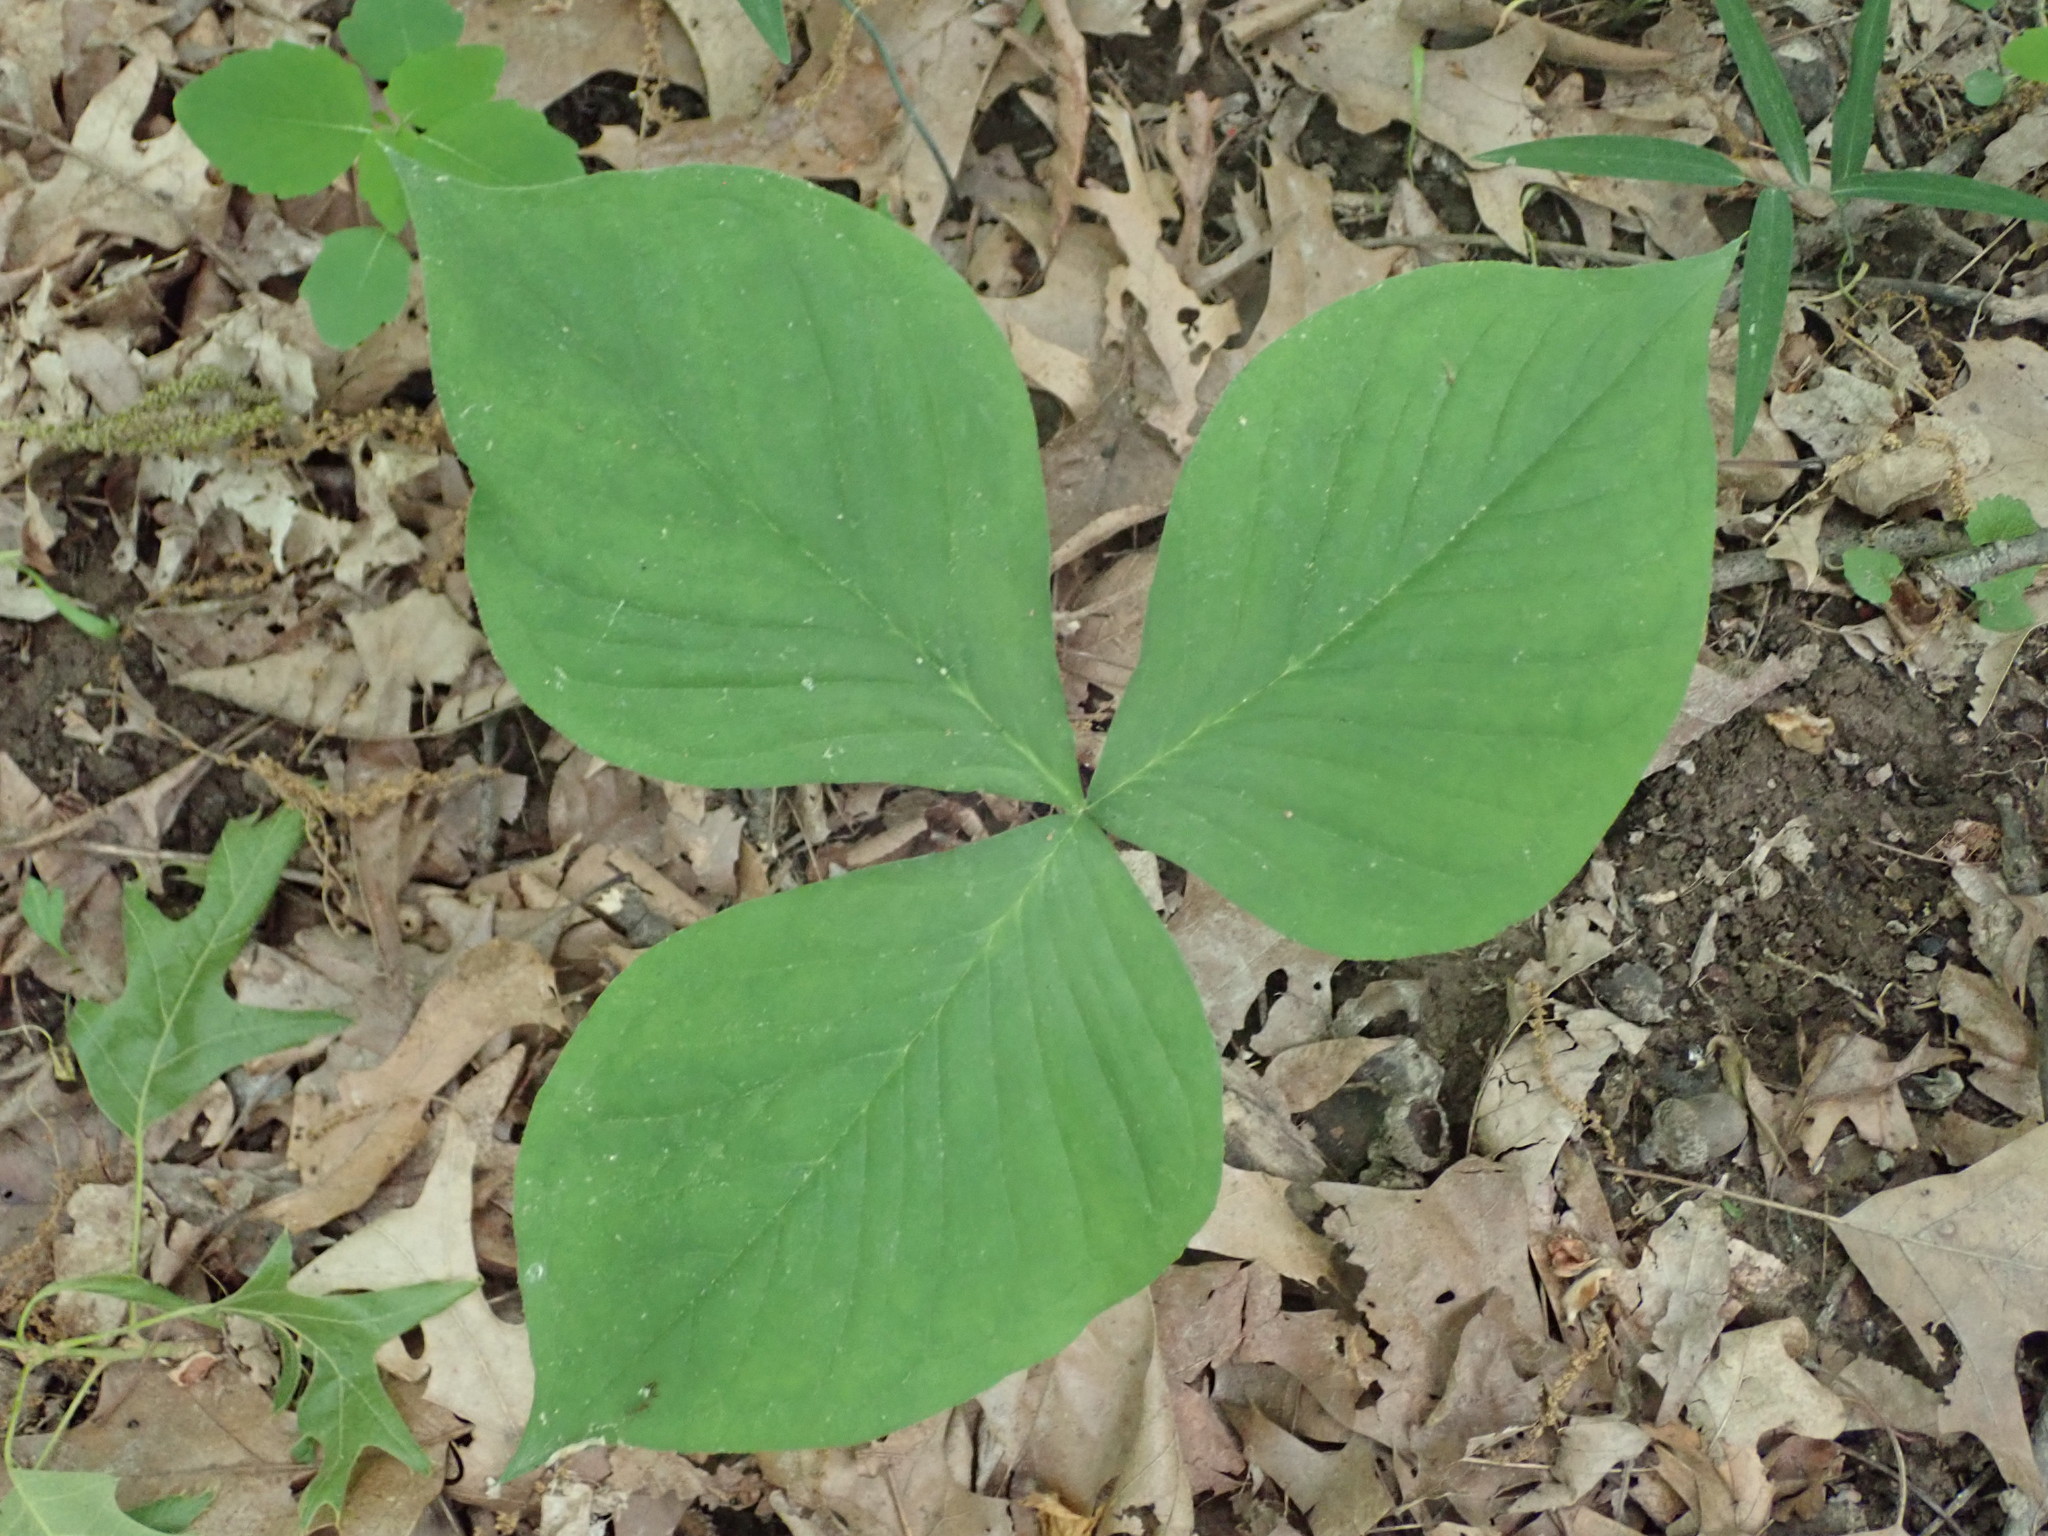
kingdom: Plantae
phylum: Tracheophyta
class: Liliopsida
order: Alismatales
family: Araceae
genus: Arisaema
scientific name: Arisaema triphyllum
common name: Jack-in-the-pulpit
